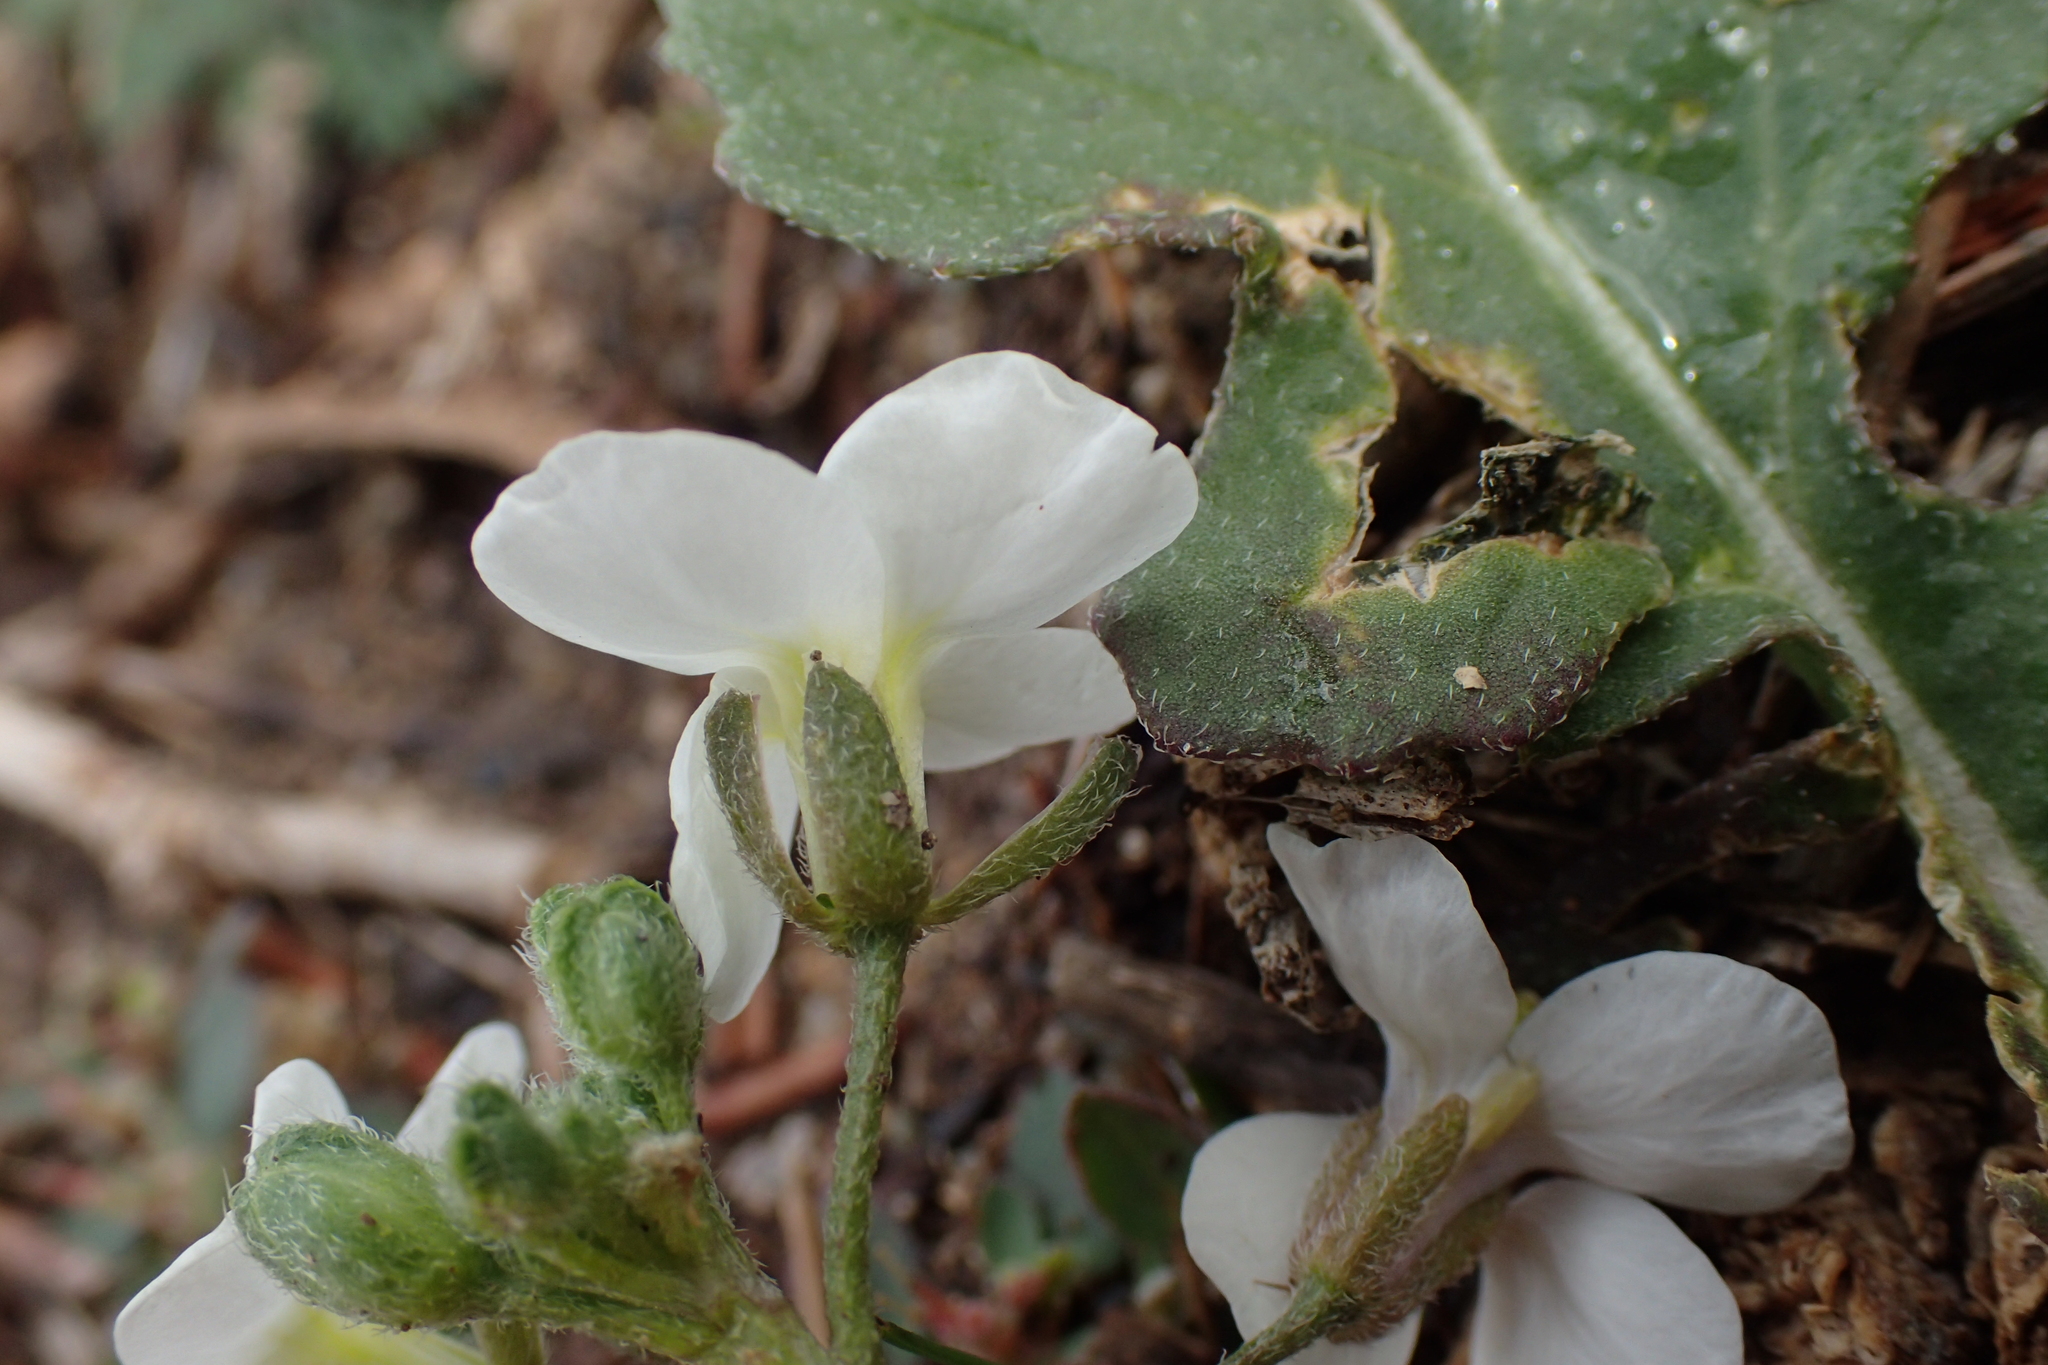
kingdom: Plantae
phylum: Tracheophyta
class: Magnoliopsida
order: Brassicales
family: Brassicaceae
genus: Diplotaxis
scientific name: Diplotaxis erucoides
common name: White rocket
